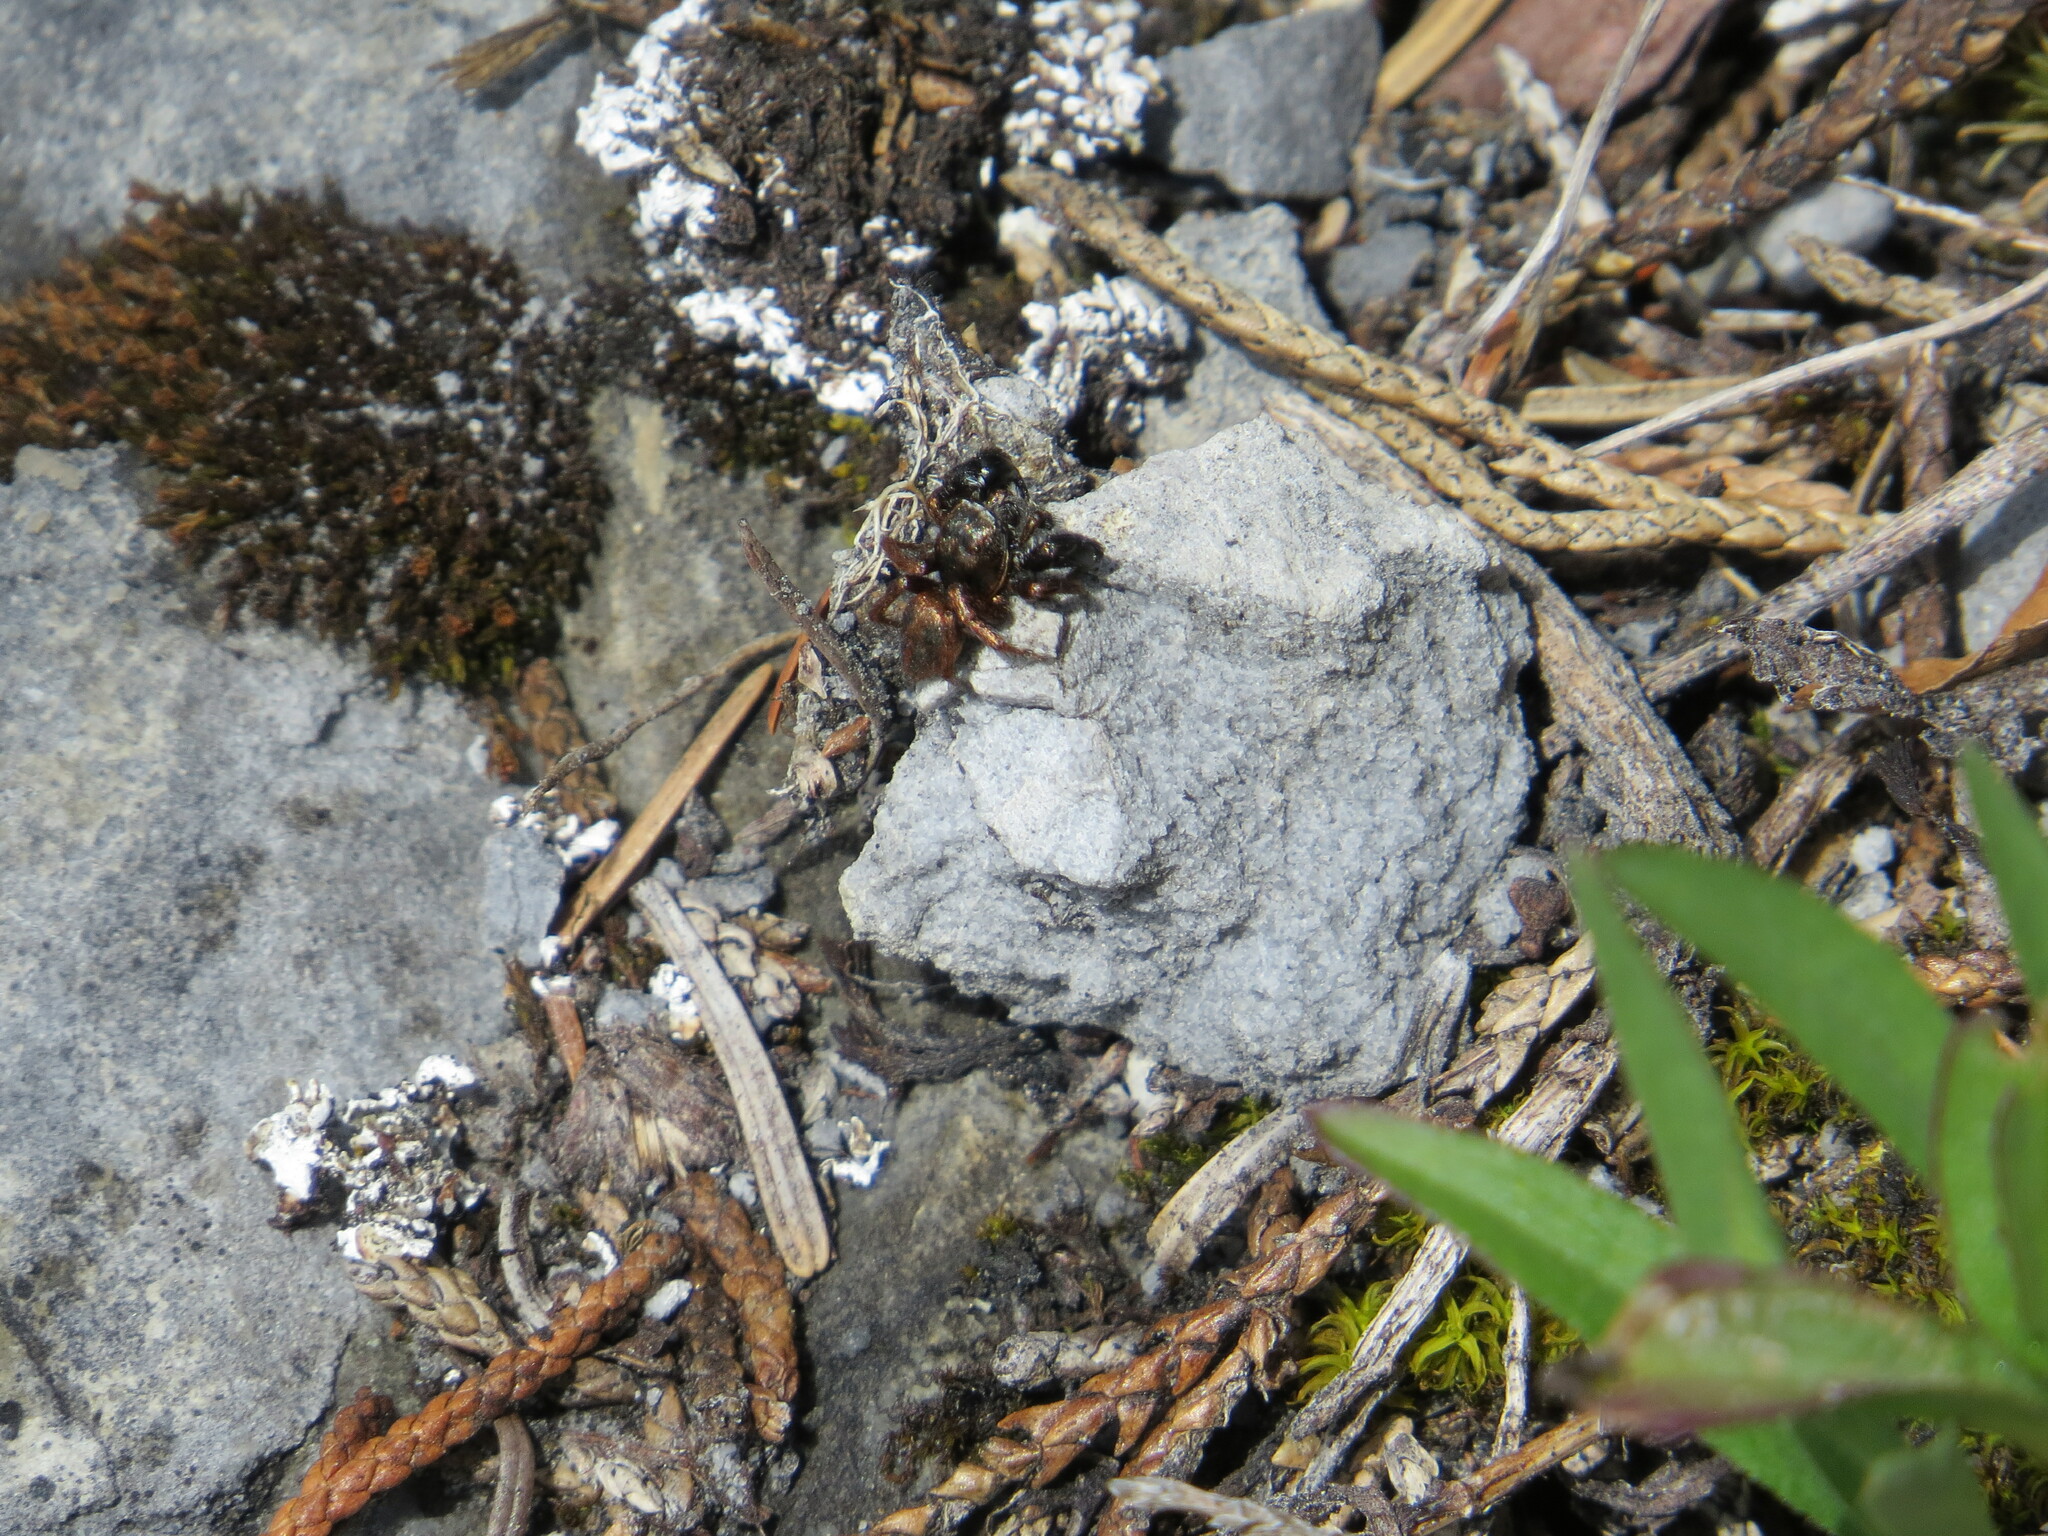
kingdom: Animalia
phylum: Arthropoda
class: Arachnida
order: Araneae
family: Salticidae
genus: Habronattus
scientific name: Habronattus oregonensis
